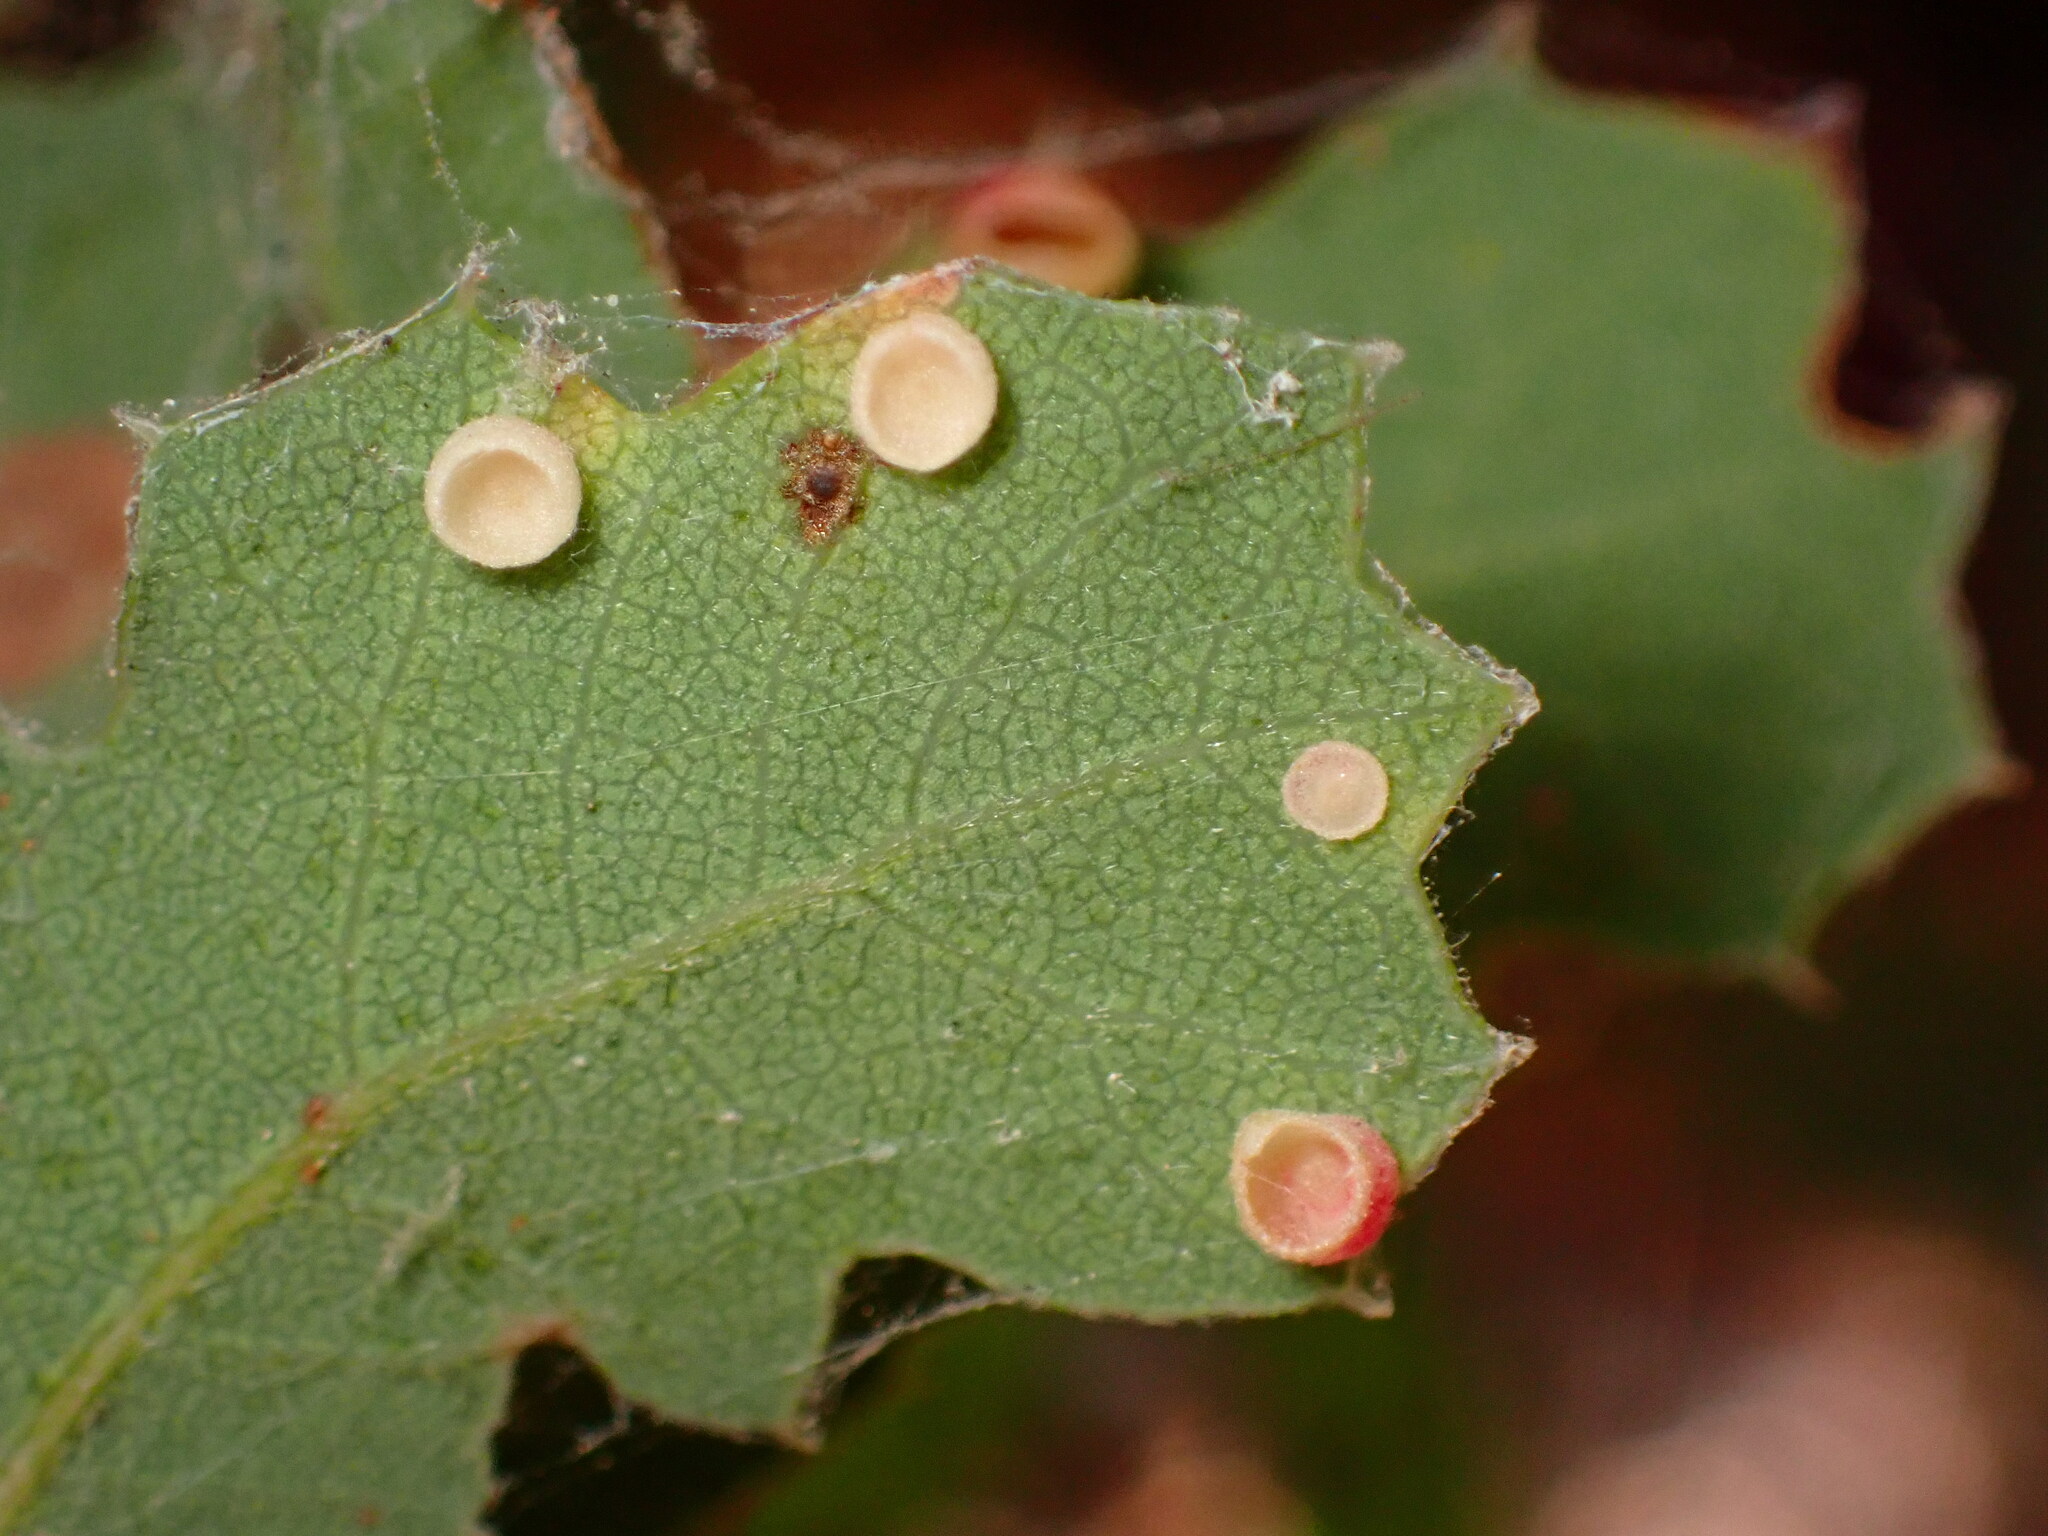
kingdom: Animalia
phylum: Arthropoda
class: Insecta
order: Hymenoptera
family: Cynipidae
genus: Phylloteras
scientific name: Phylloteras
